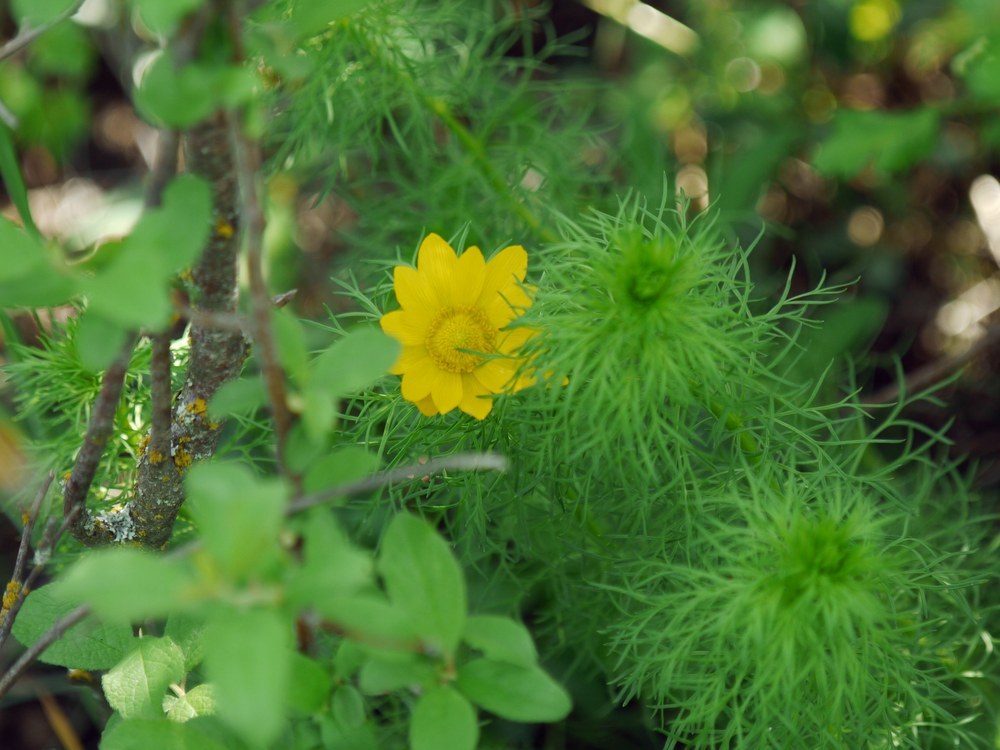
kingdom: Plantae
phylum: Tracheophyta
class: Magnoliopsida
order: Ranunculales
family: Ranunculaceae
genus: Adonis
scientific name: Adonis vernalis
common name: Yellow pheasants-eye
